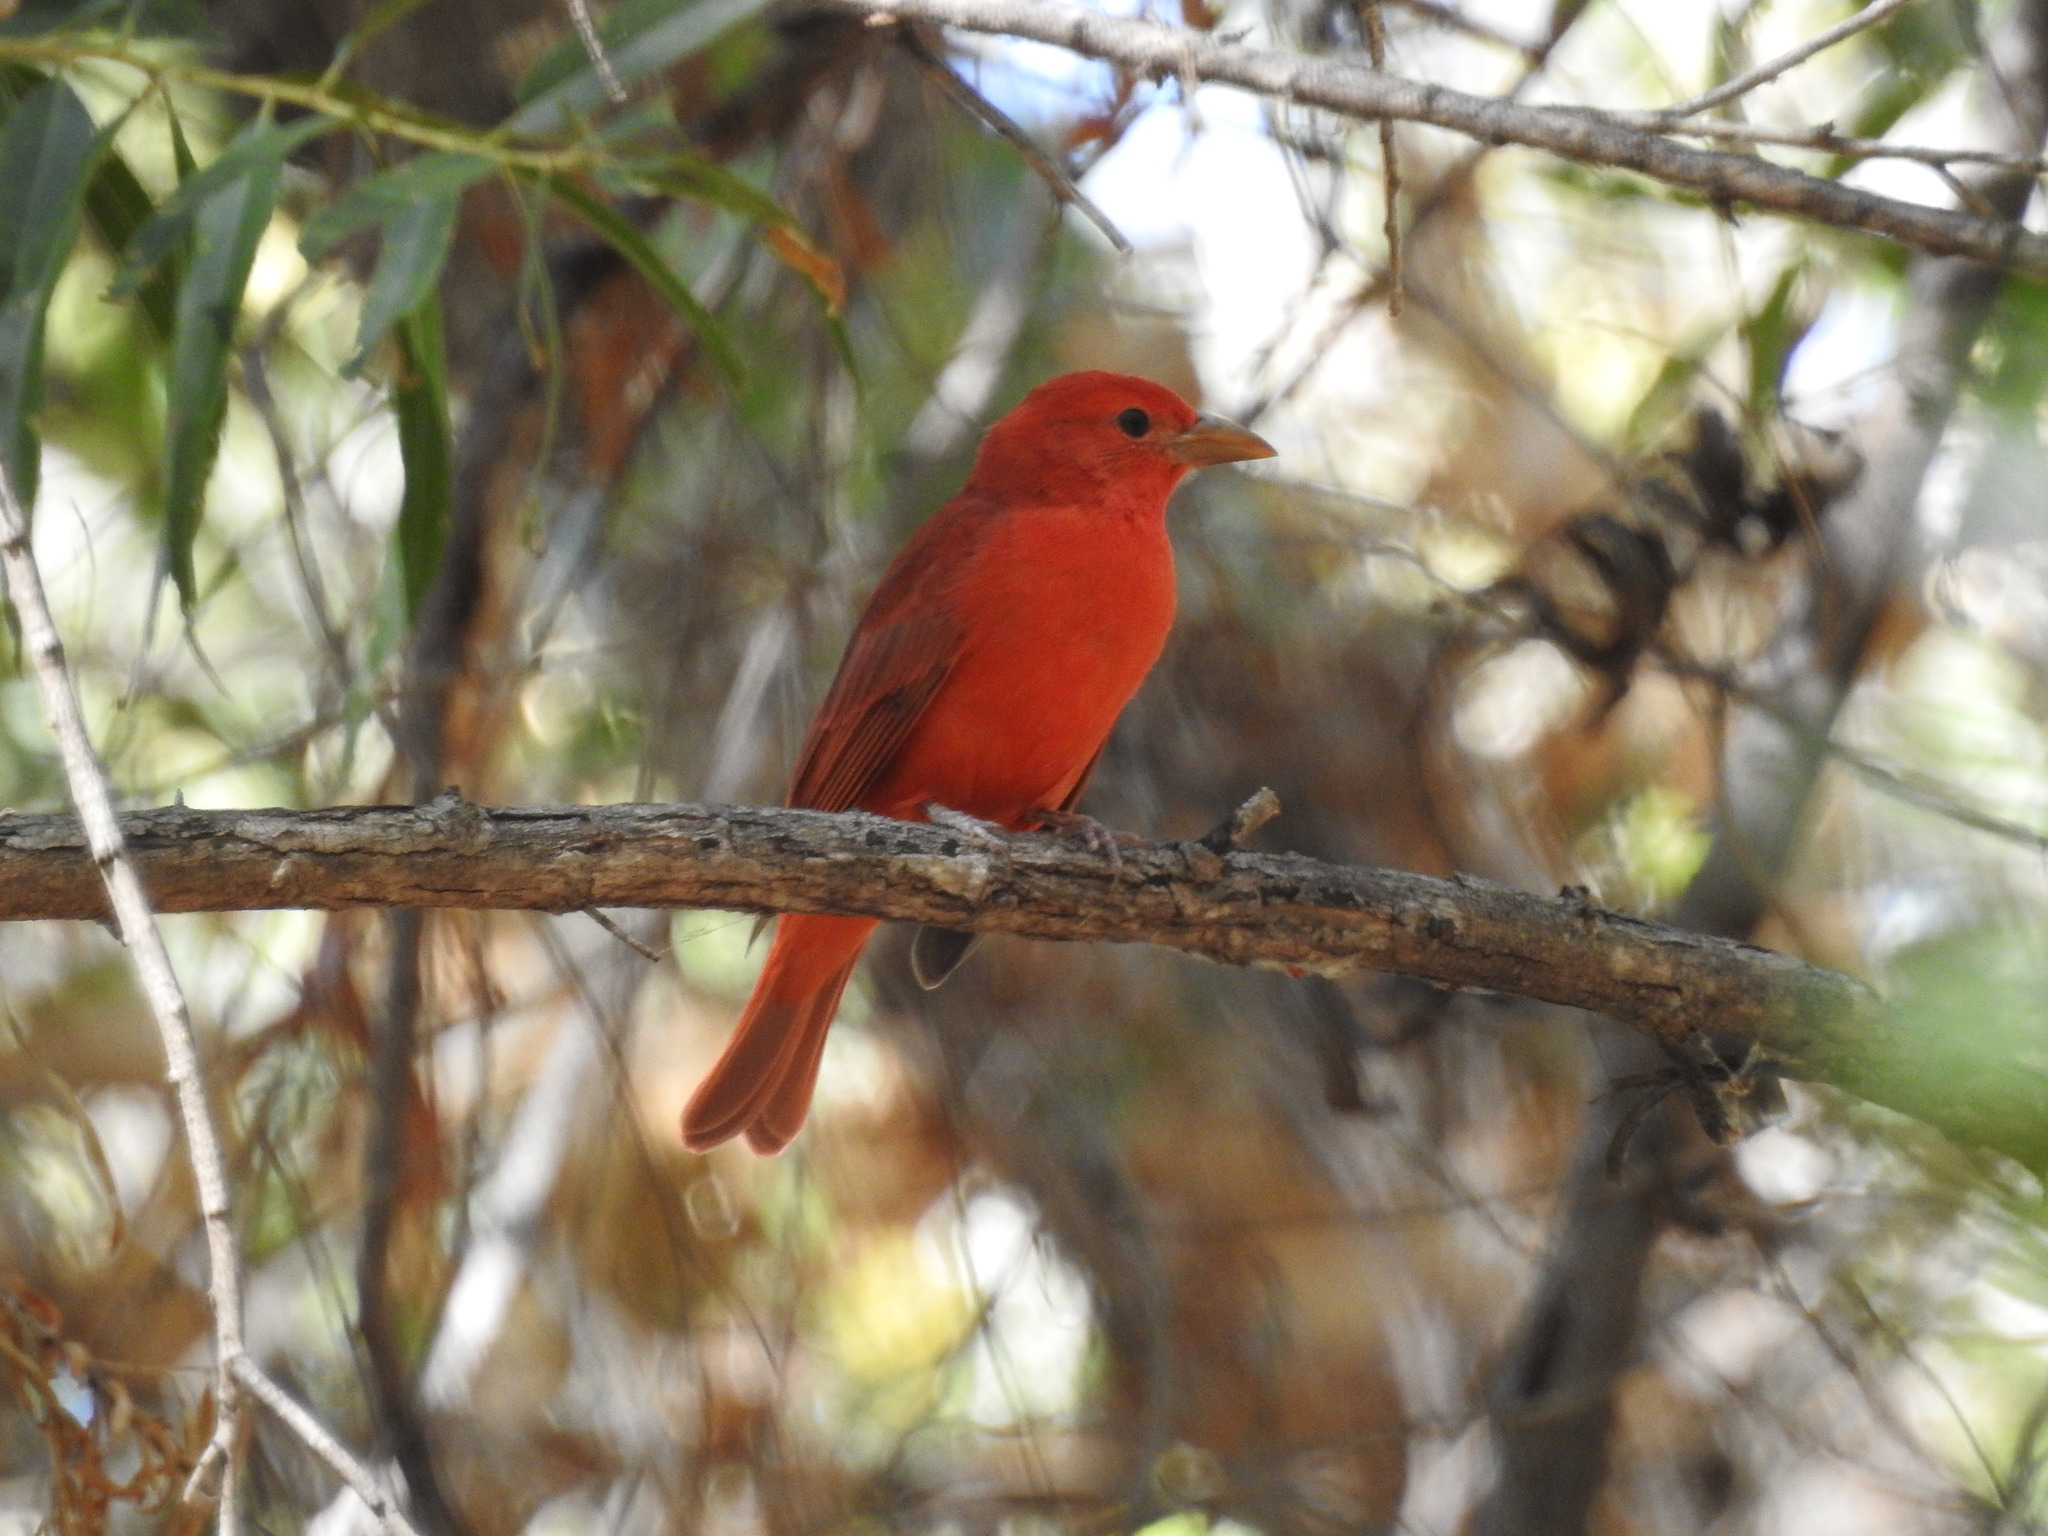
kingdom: Animalia
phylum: Chordata
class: Aves
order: Passeriformes
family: Cardinalidae
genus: Piranga
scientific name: Piranga rubra
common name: Summer tanager
